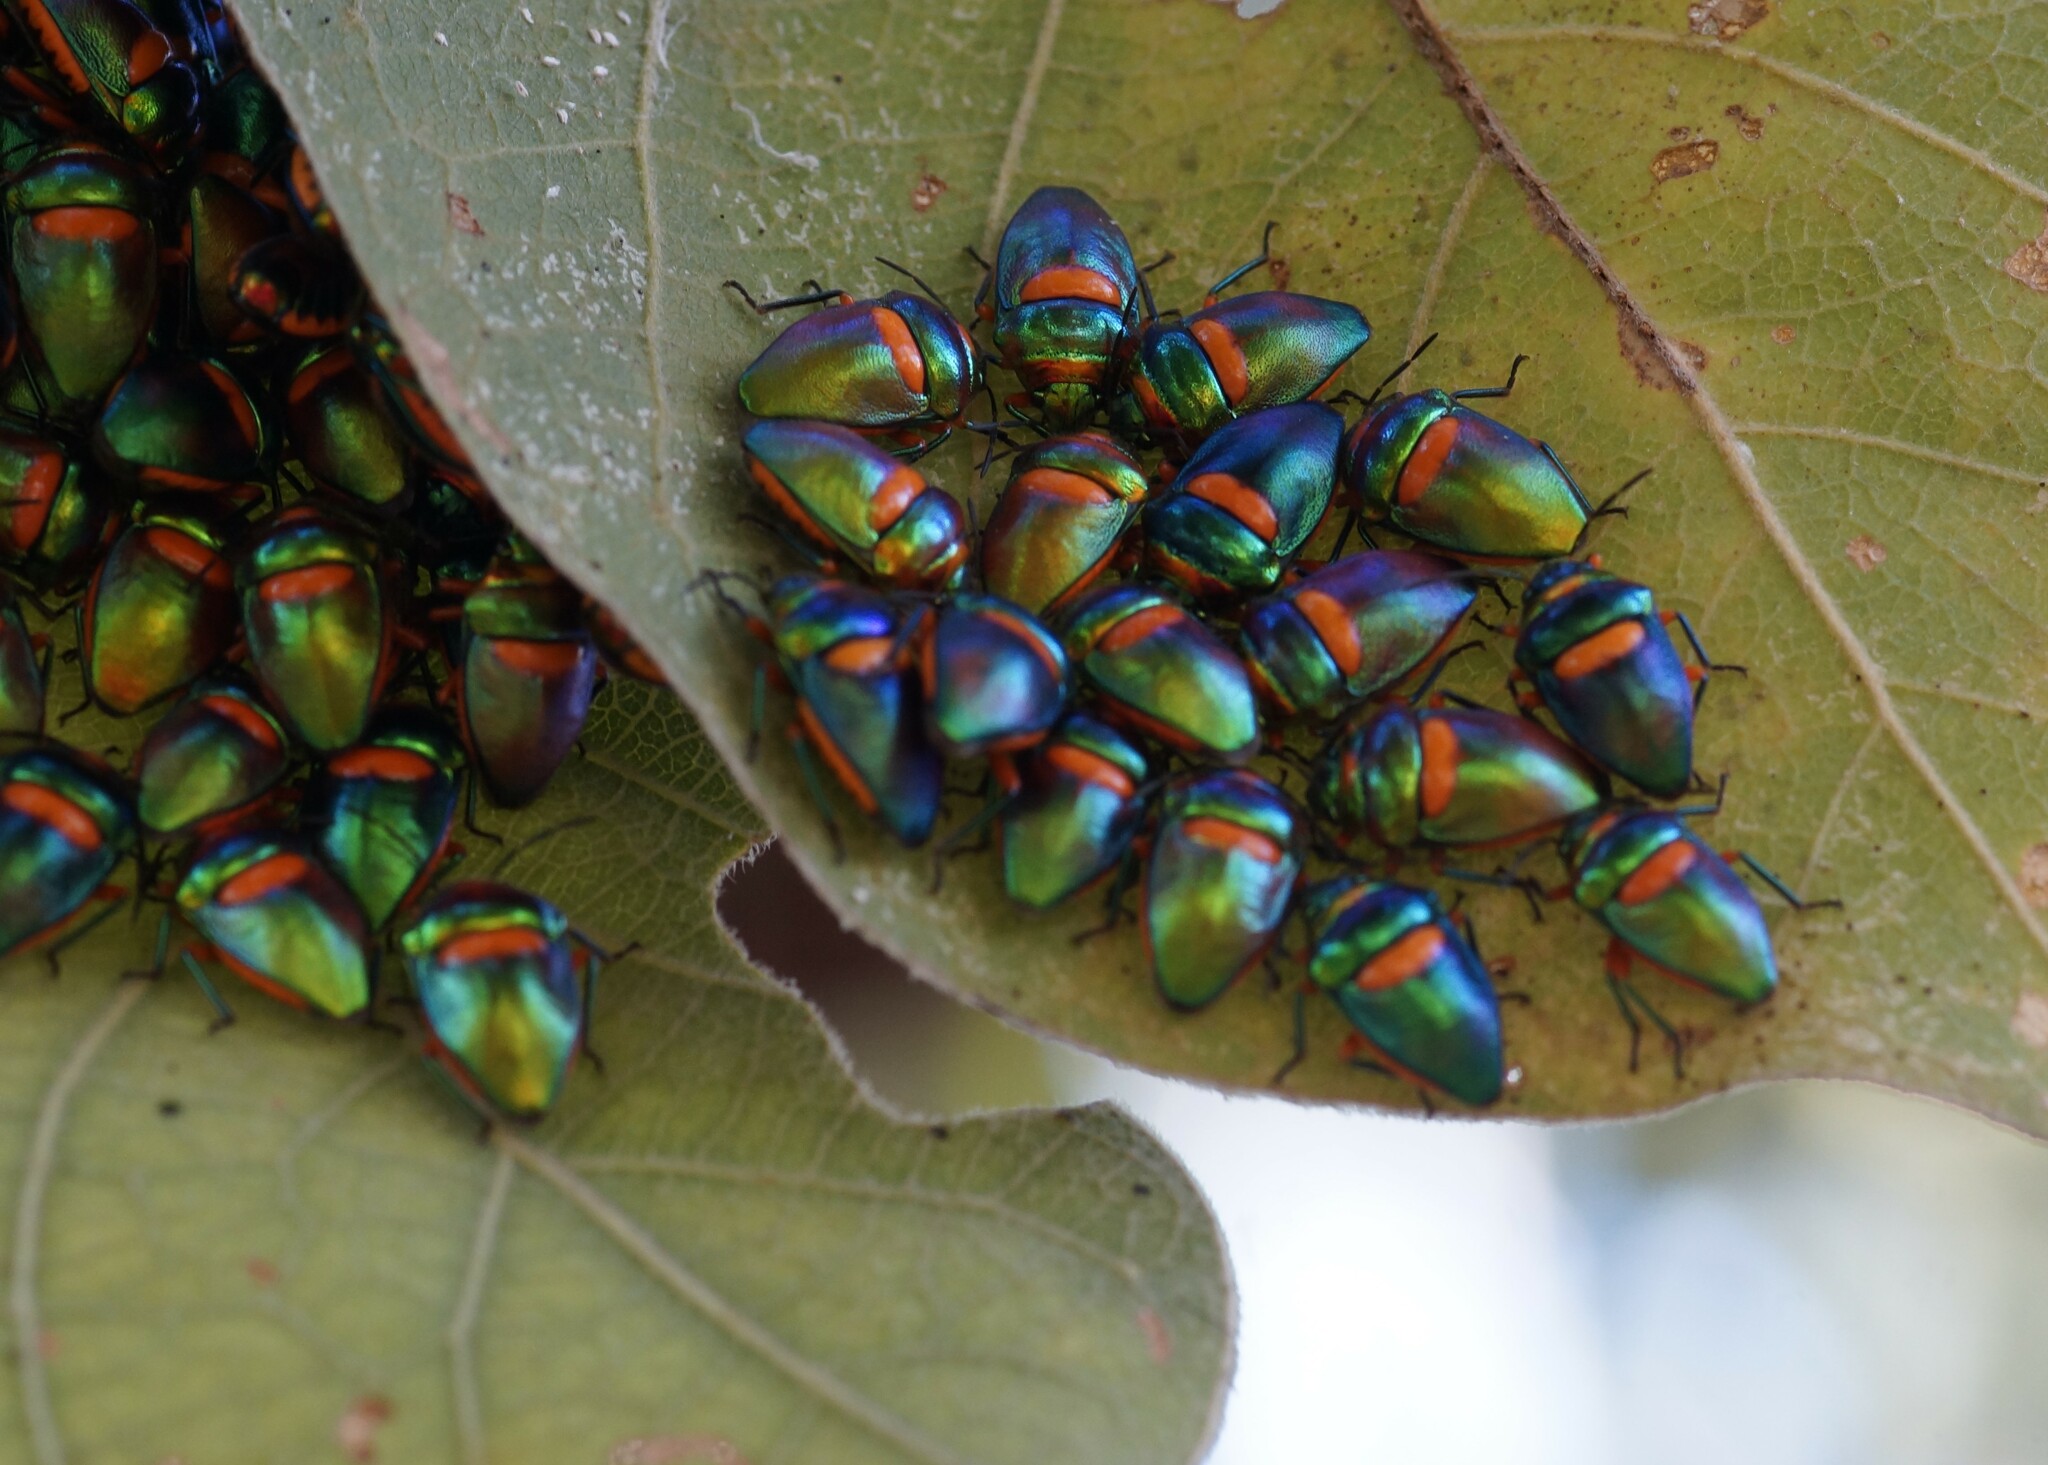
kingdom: Animalia
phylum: Arthropoda
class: Insecta
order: Hemiptera
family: Scutelleridae
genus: Lampromicra
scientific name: Lampromicra senator
